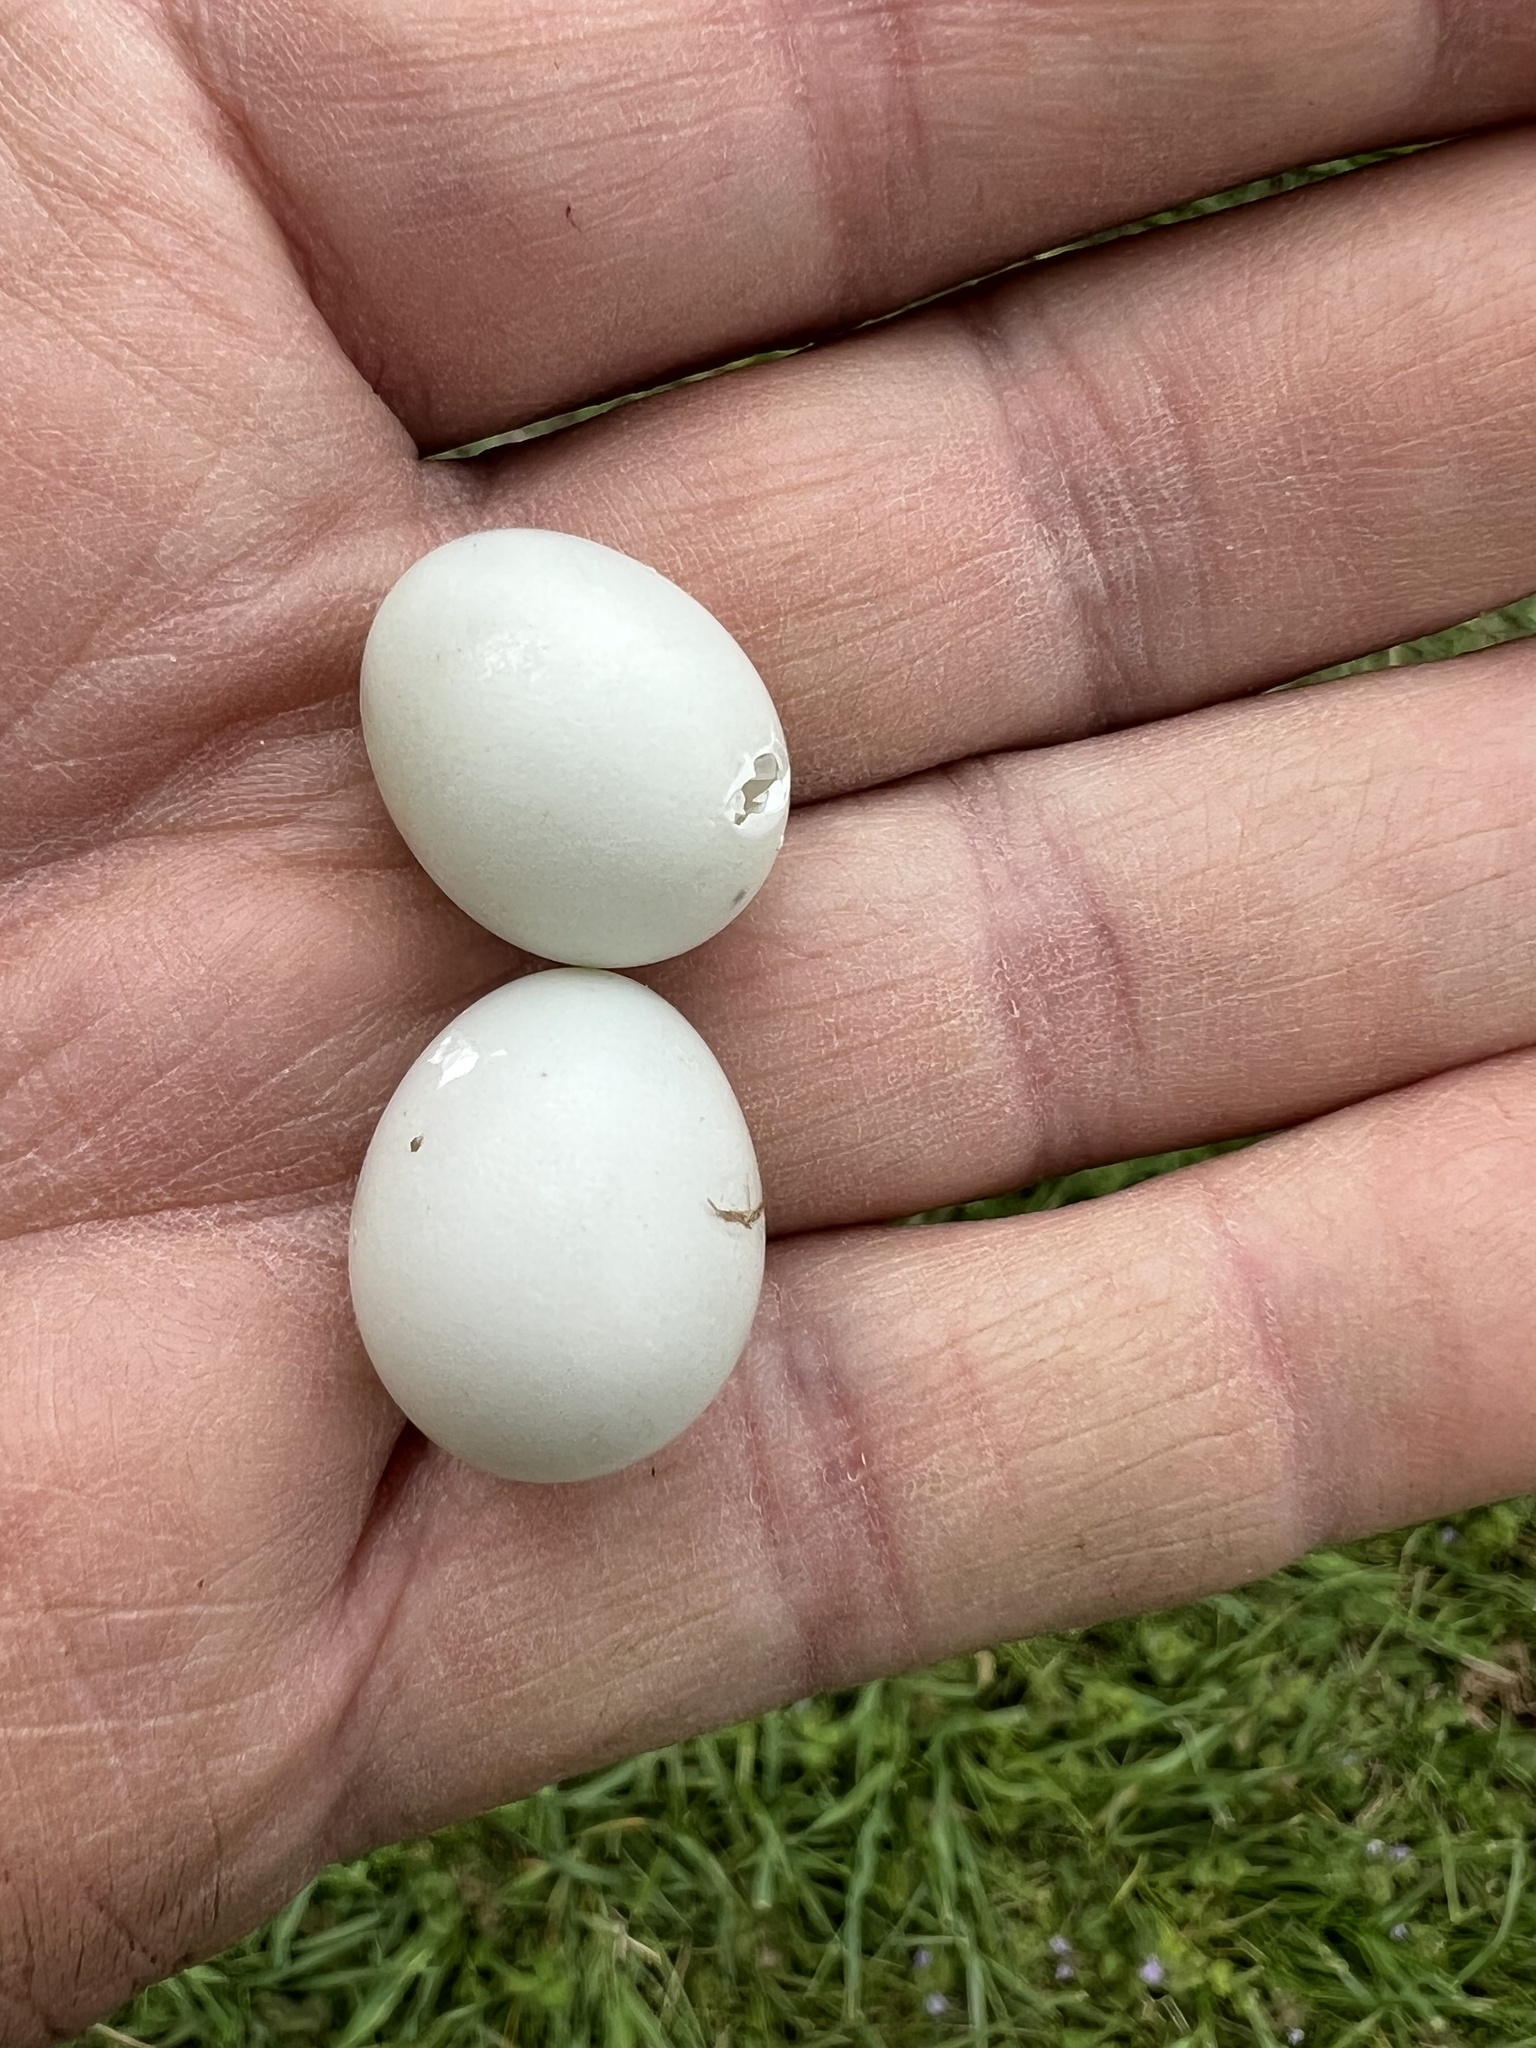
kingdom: Animalia
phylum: Chordata
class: Aves
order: Columbiformes
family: Columbidae
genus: Zenaida
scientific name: Zenaida macroura
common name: Mourning dove
